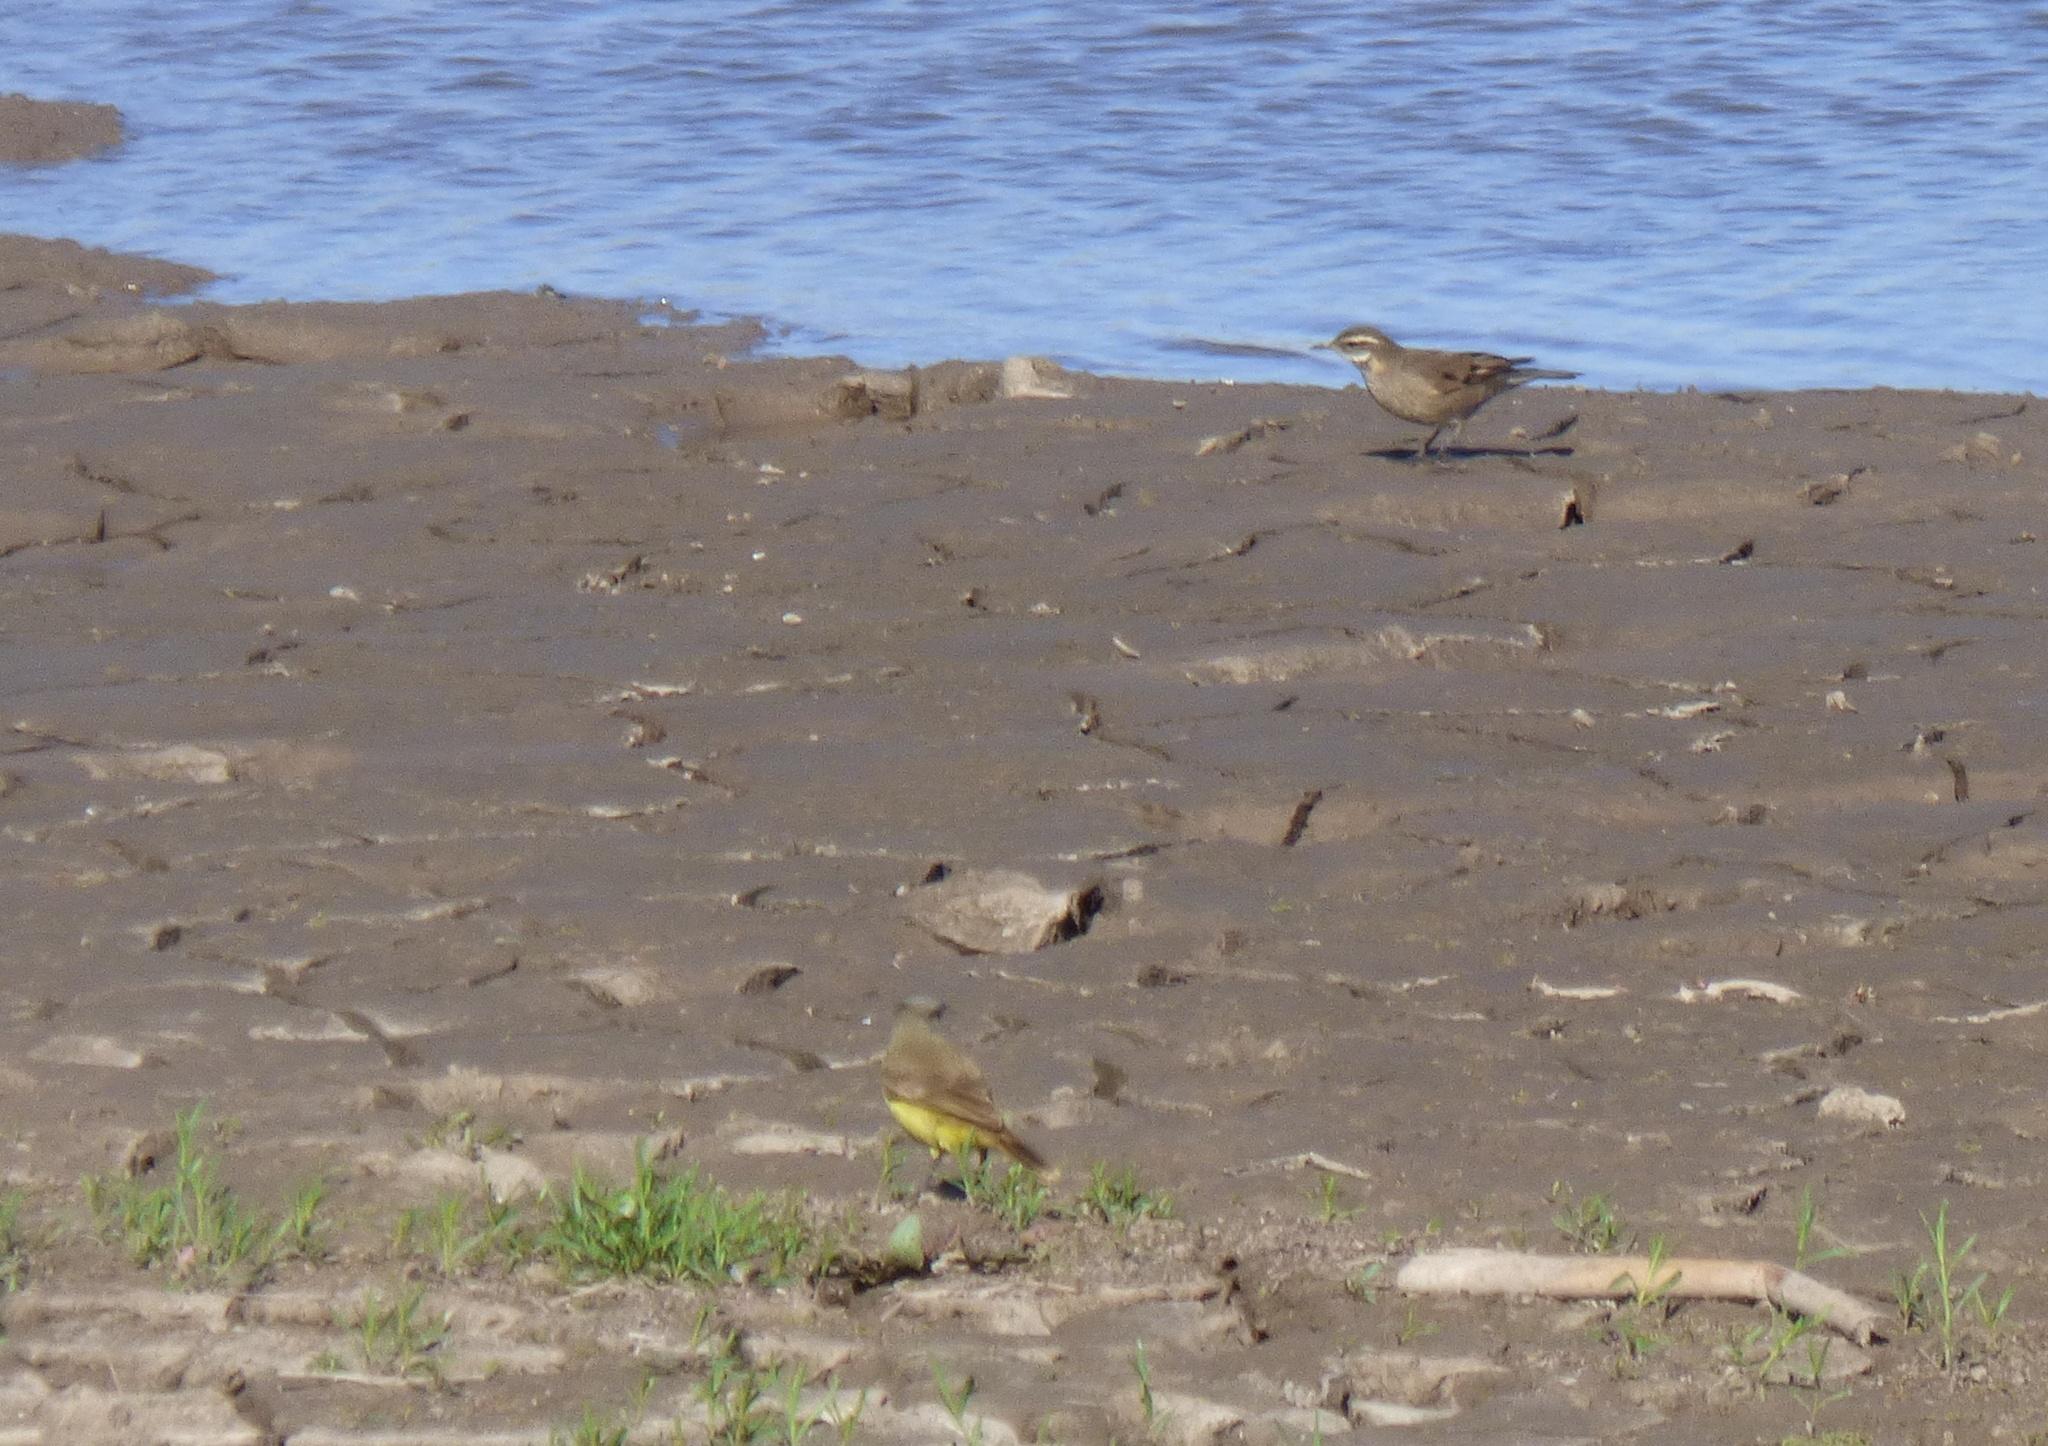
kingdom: Animalia
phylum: Chordata
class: Aves
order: Passeriformes
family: Tyrannidae
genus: Machetornis
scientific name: Machetornis rixosa
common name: Cattle tyrant
